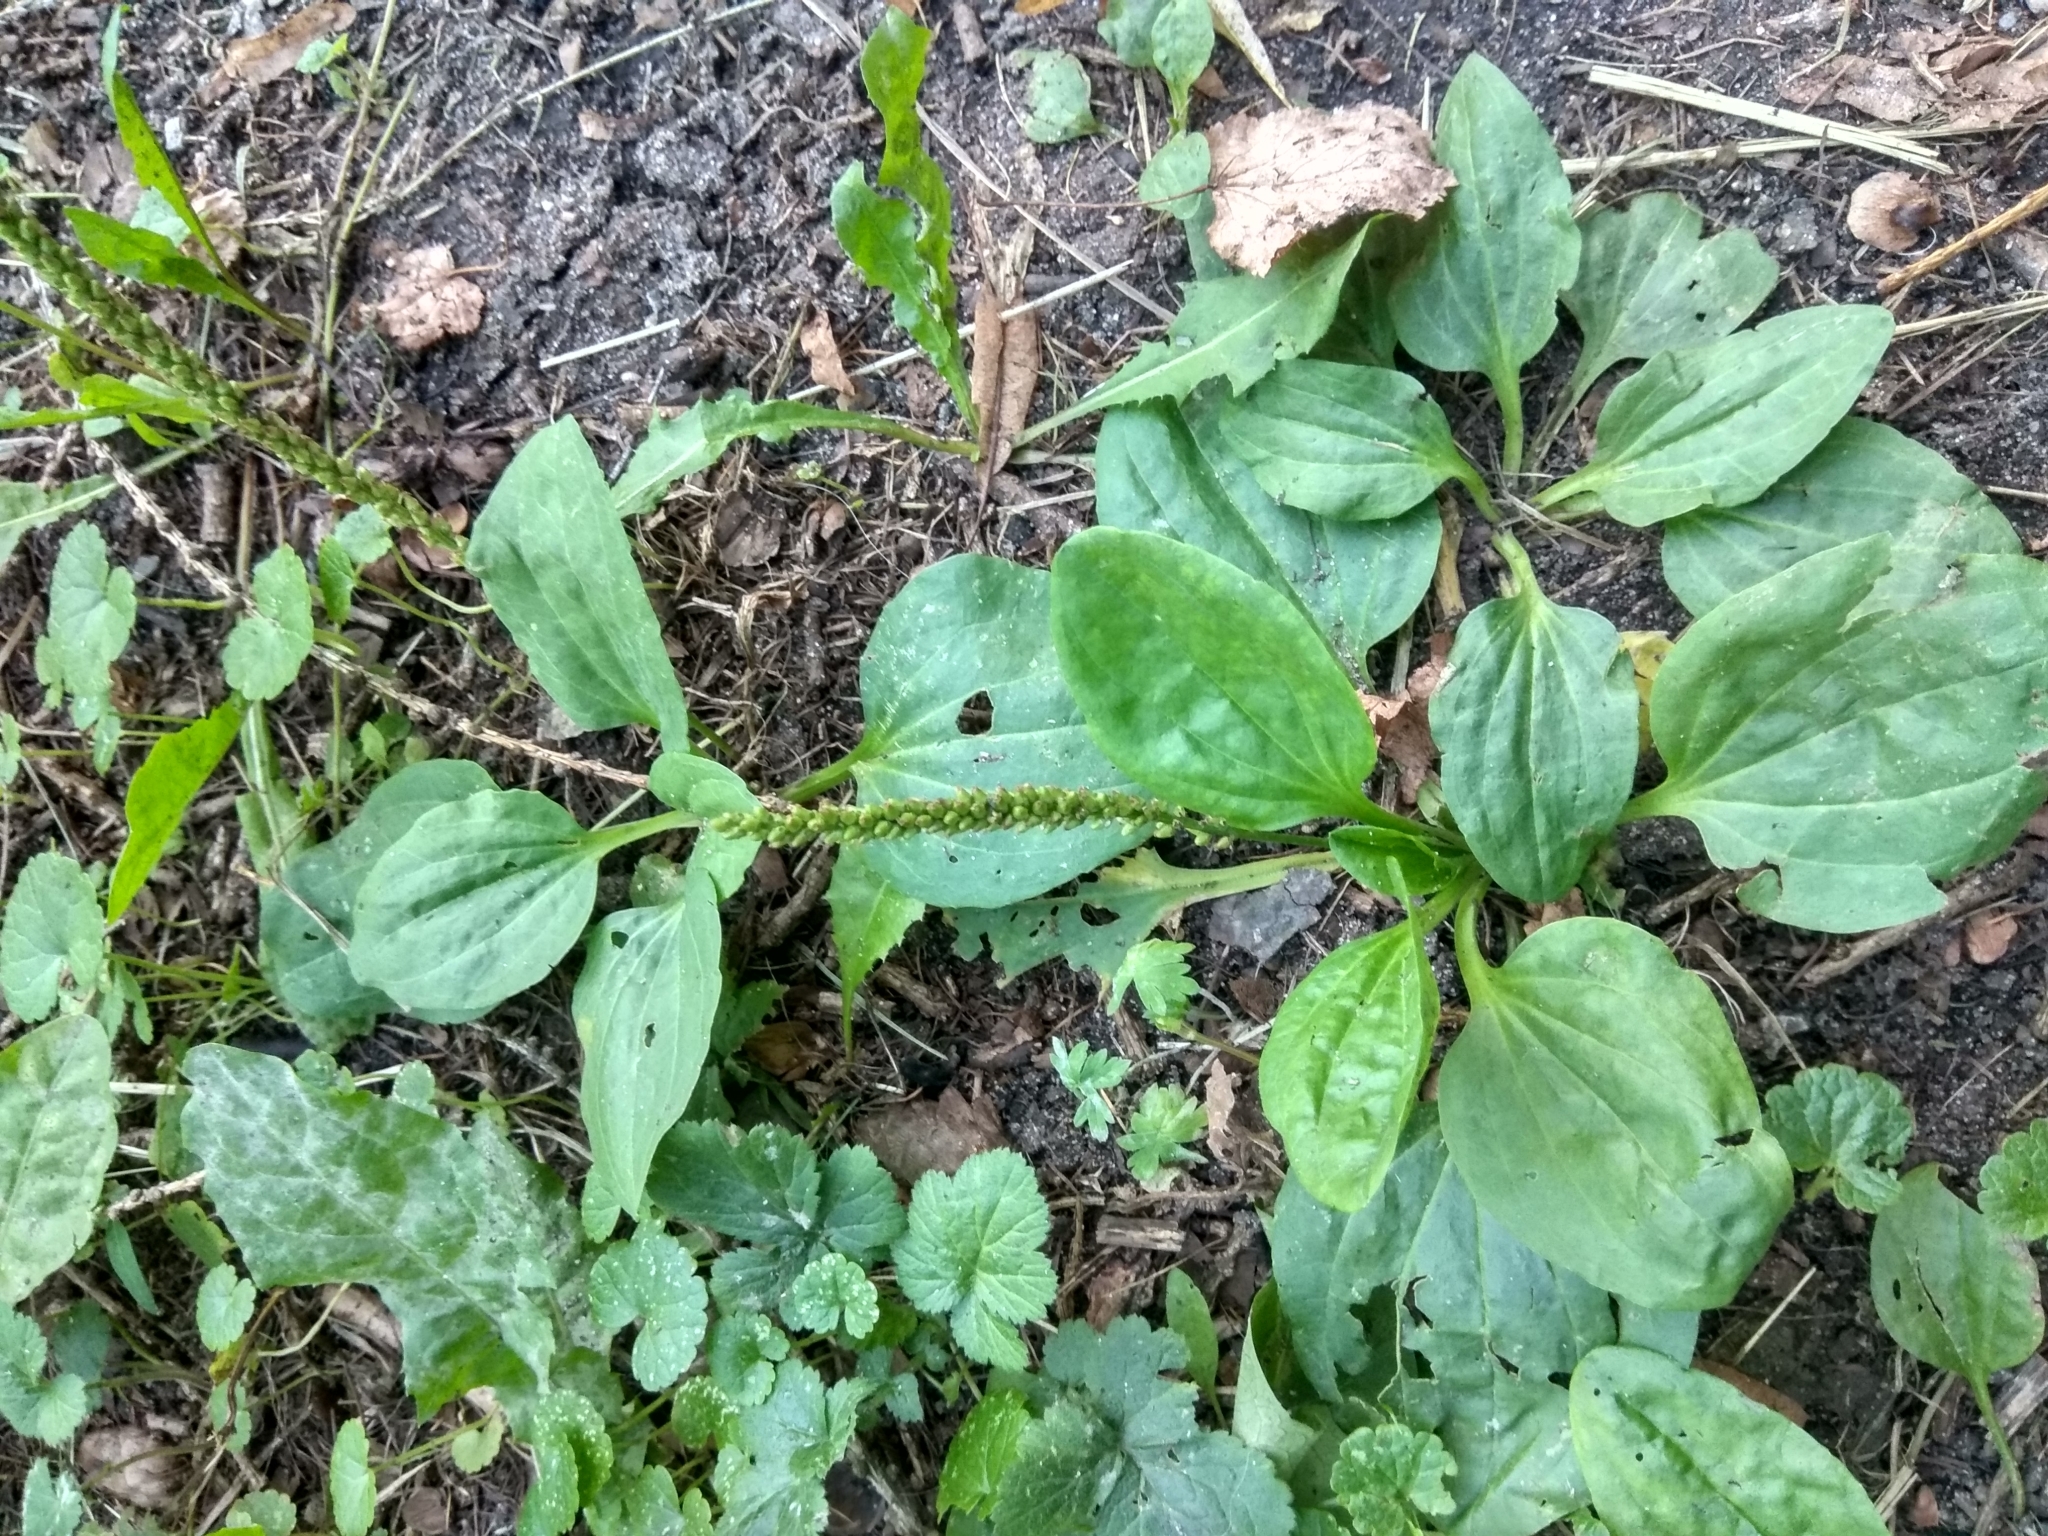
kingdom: Plantae
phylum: Tracheophyta
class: Magnoliopsida
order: Lamiales
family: Plantaginaceae
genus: Plantago
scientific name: Plantago major
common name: Common plantain
